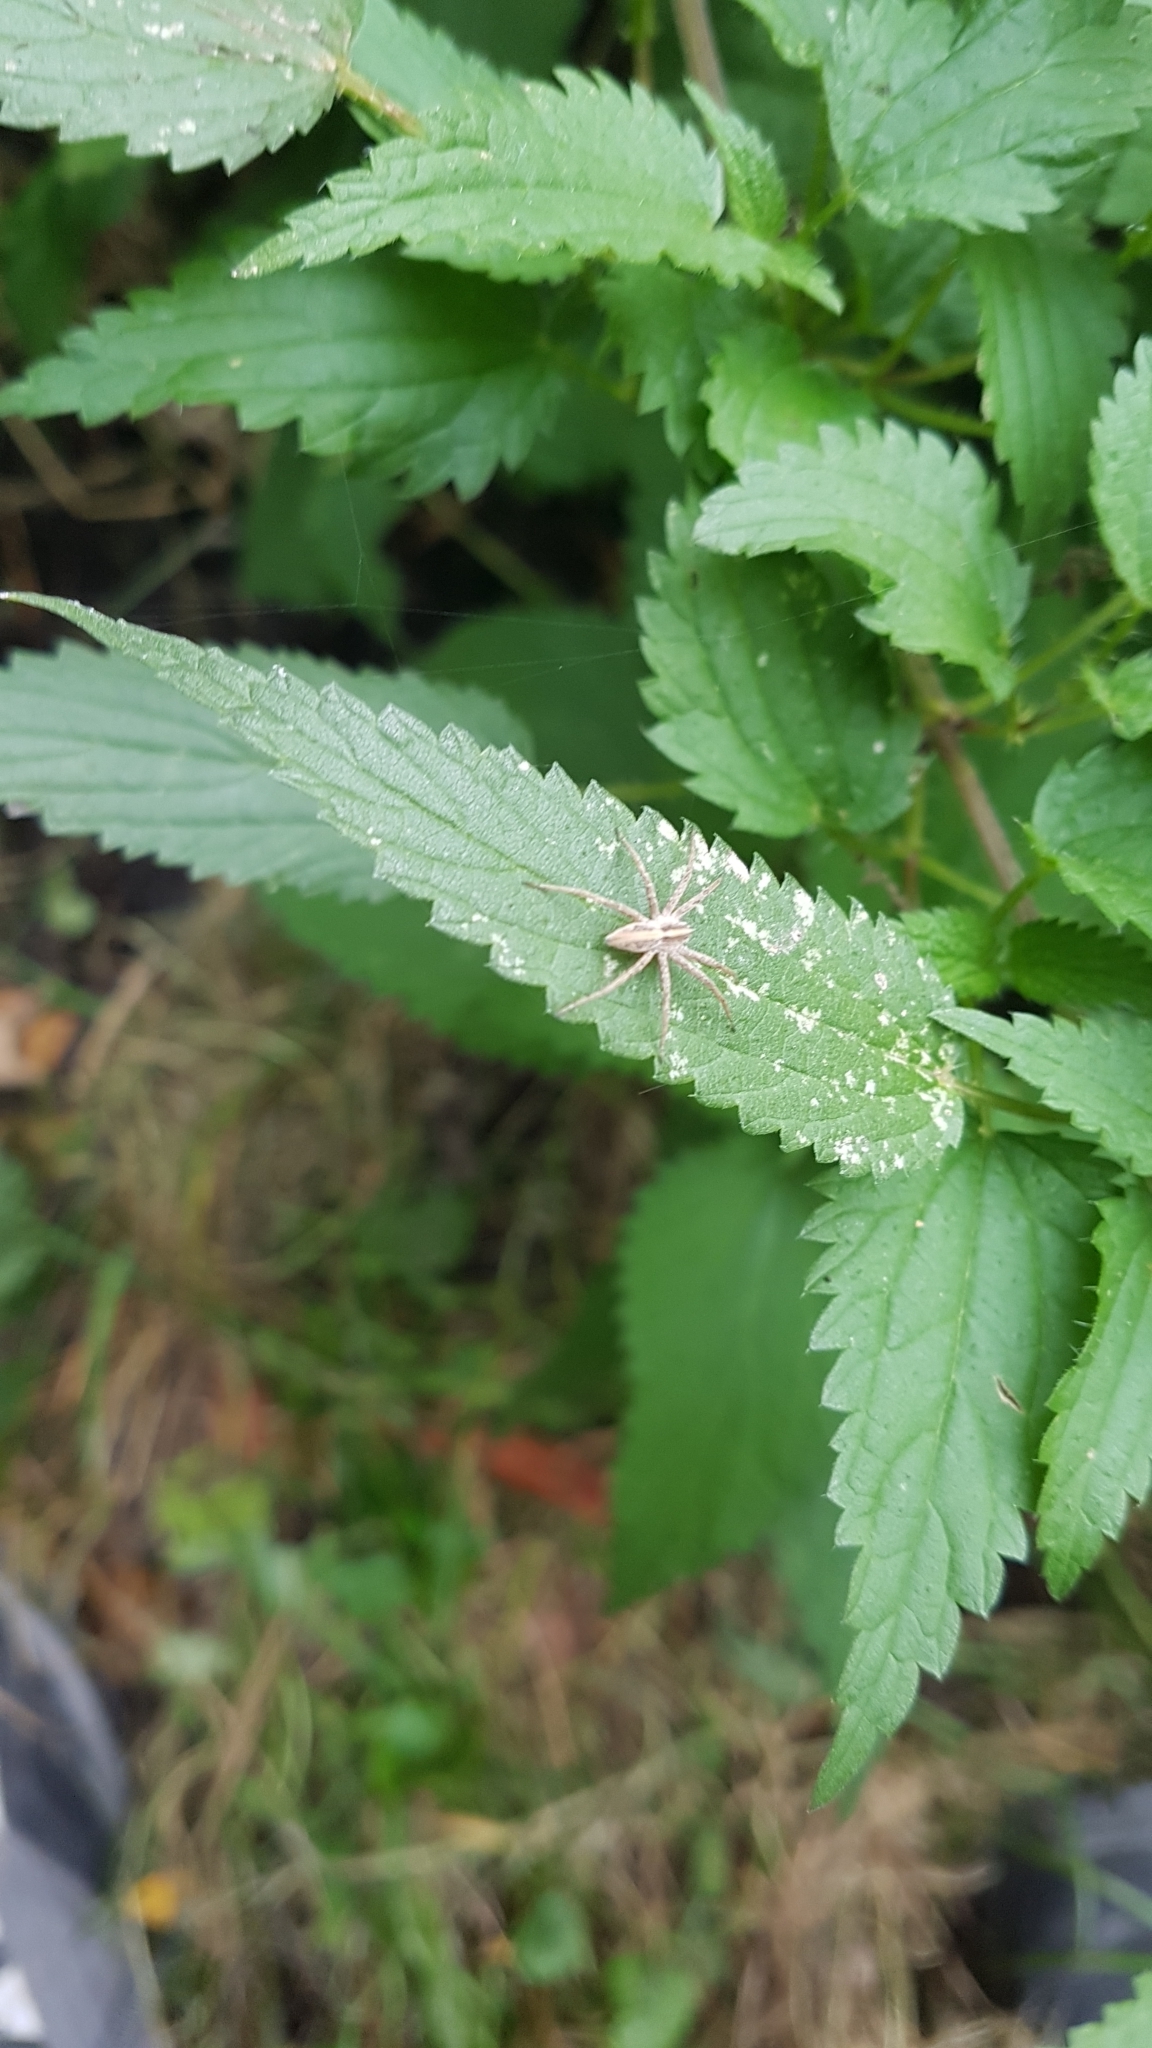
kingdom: Plantae
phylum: Tracheophyta
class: Magnoliopsida
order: Rosales
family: Urticaceae
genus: Urtica
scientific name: Urtica dioica
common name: Common nettle
